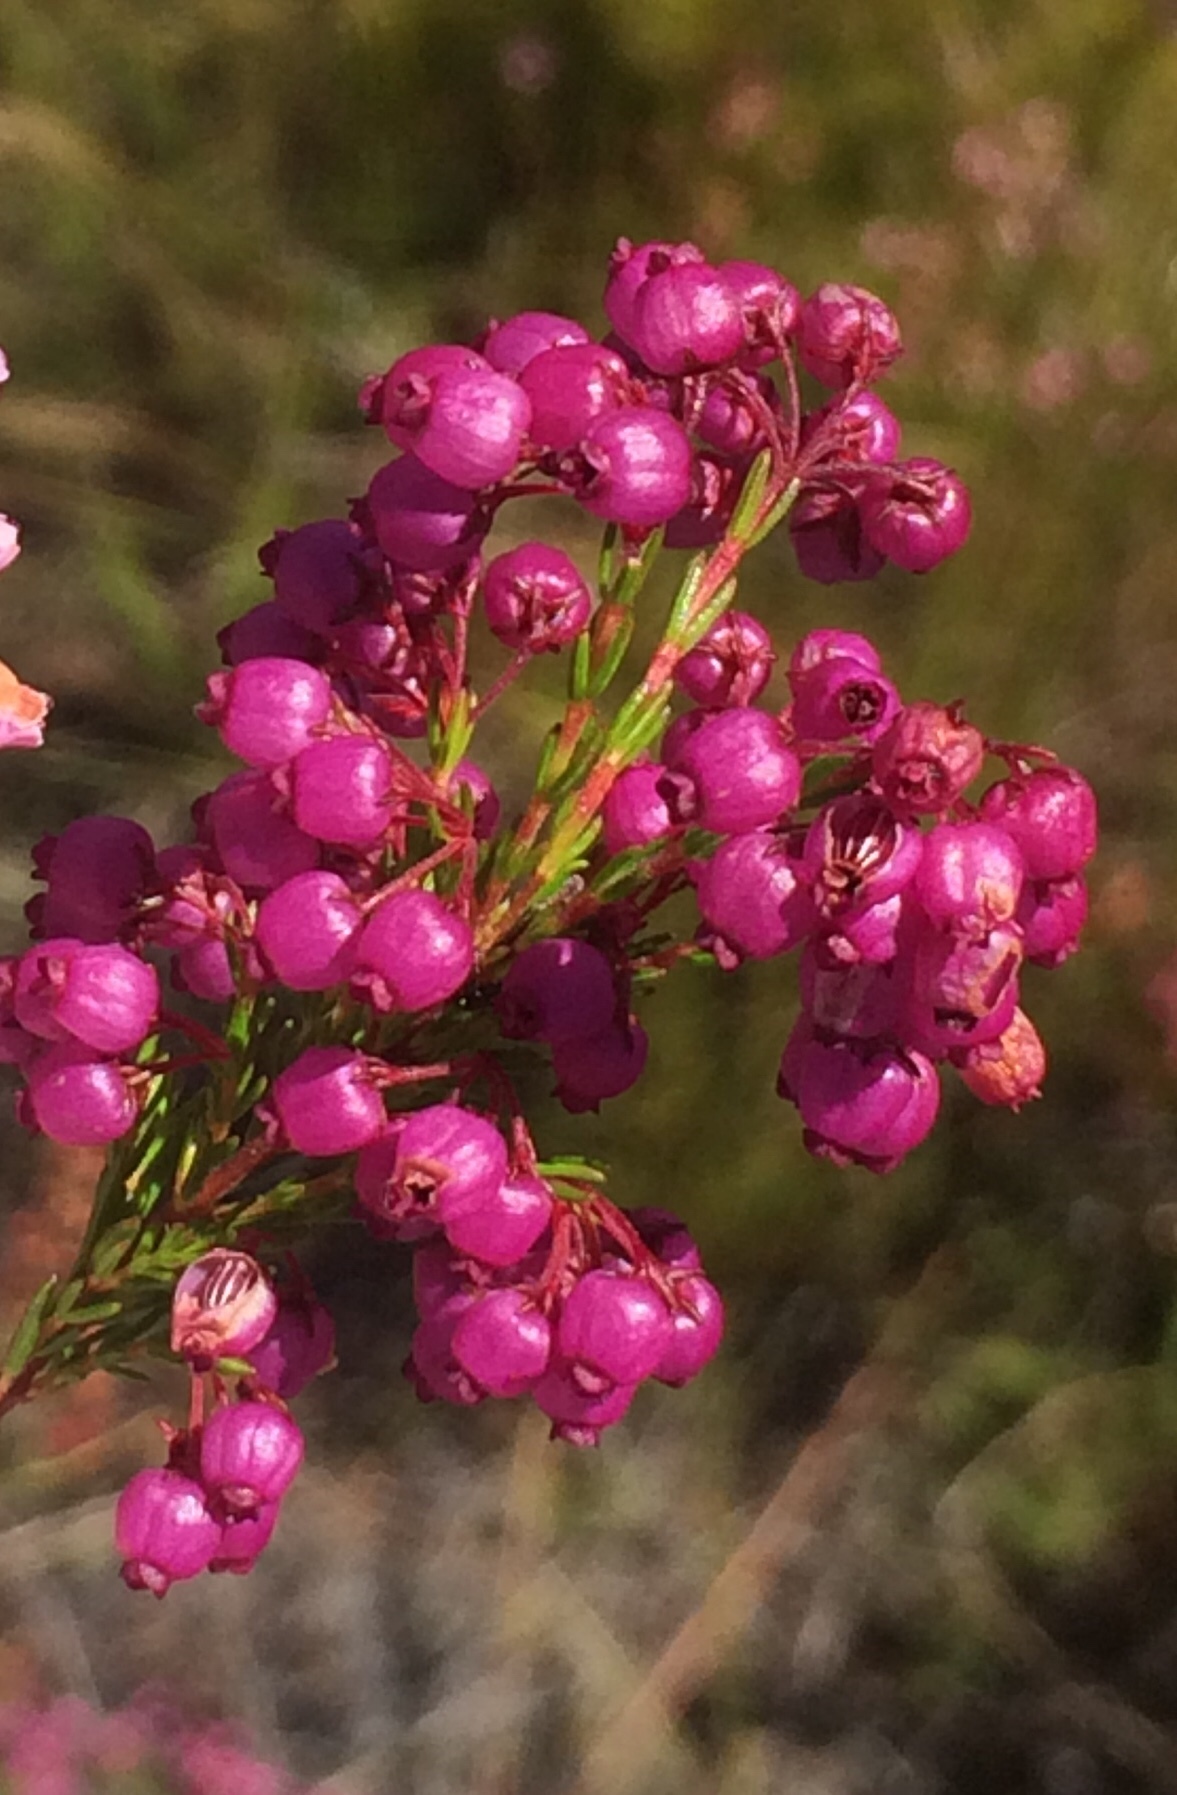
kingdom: Plantae
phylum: Tracheophyta
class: Magnoliopsida
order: Ericales
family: Ericaceae
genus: Erica
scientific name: Erica multumbellifera
